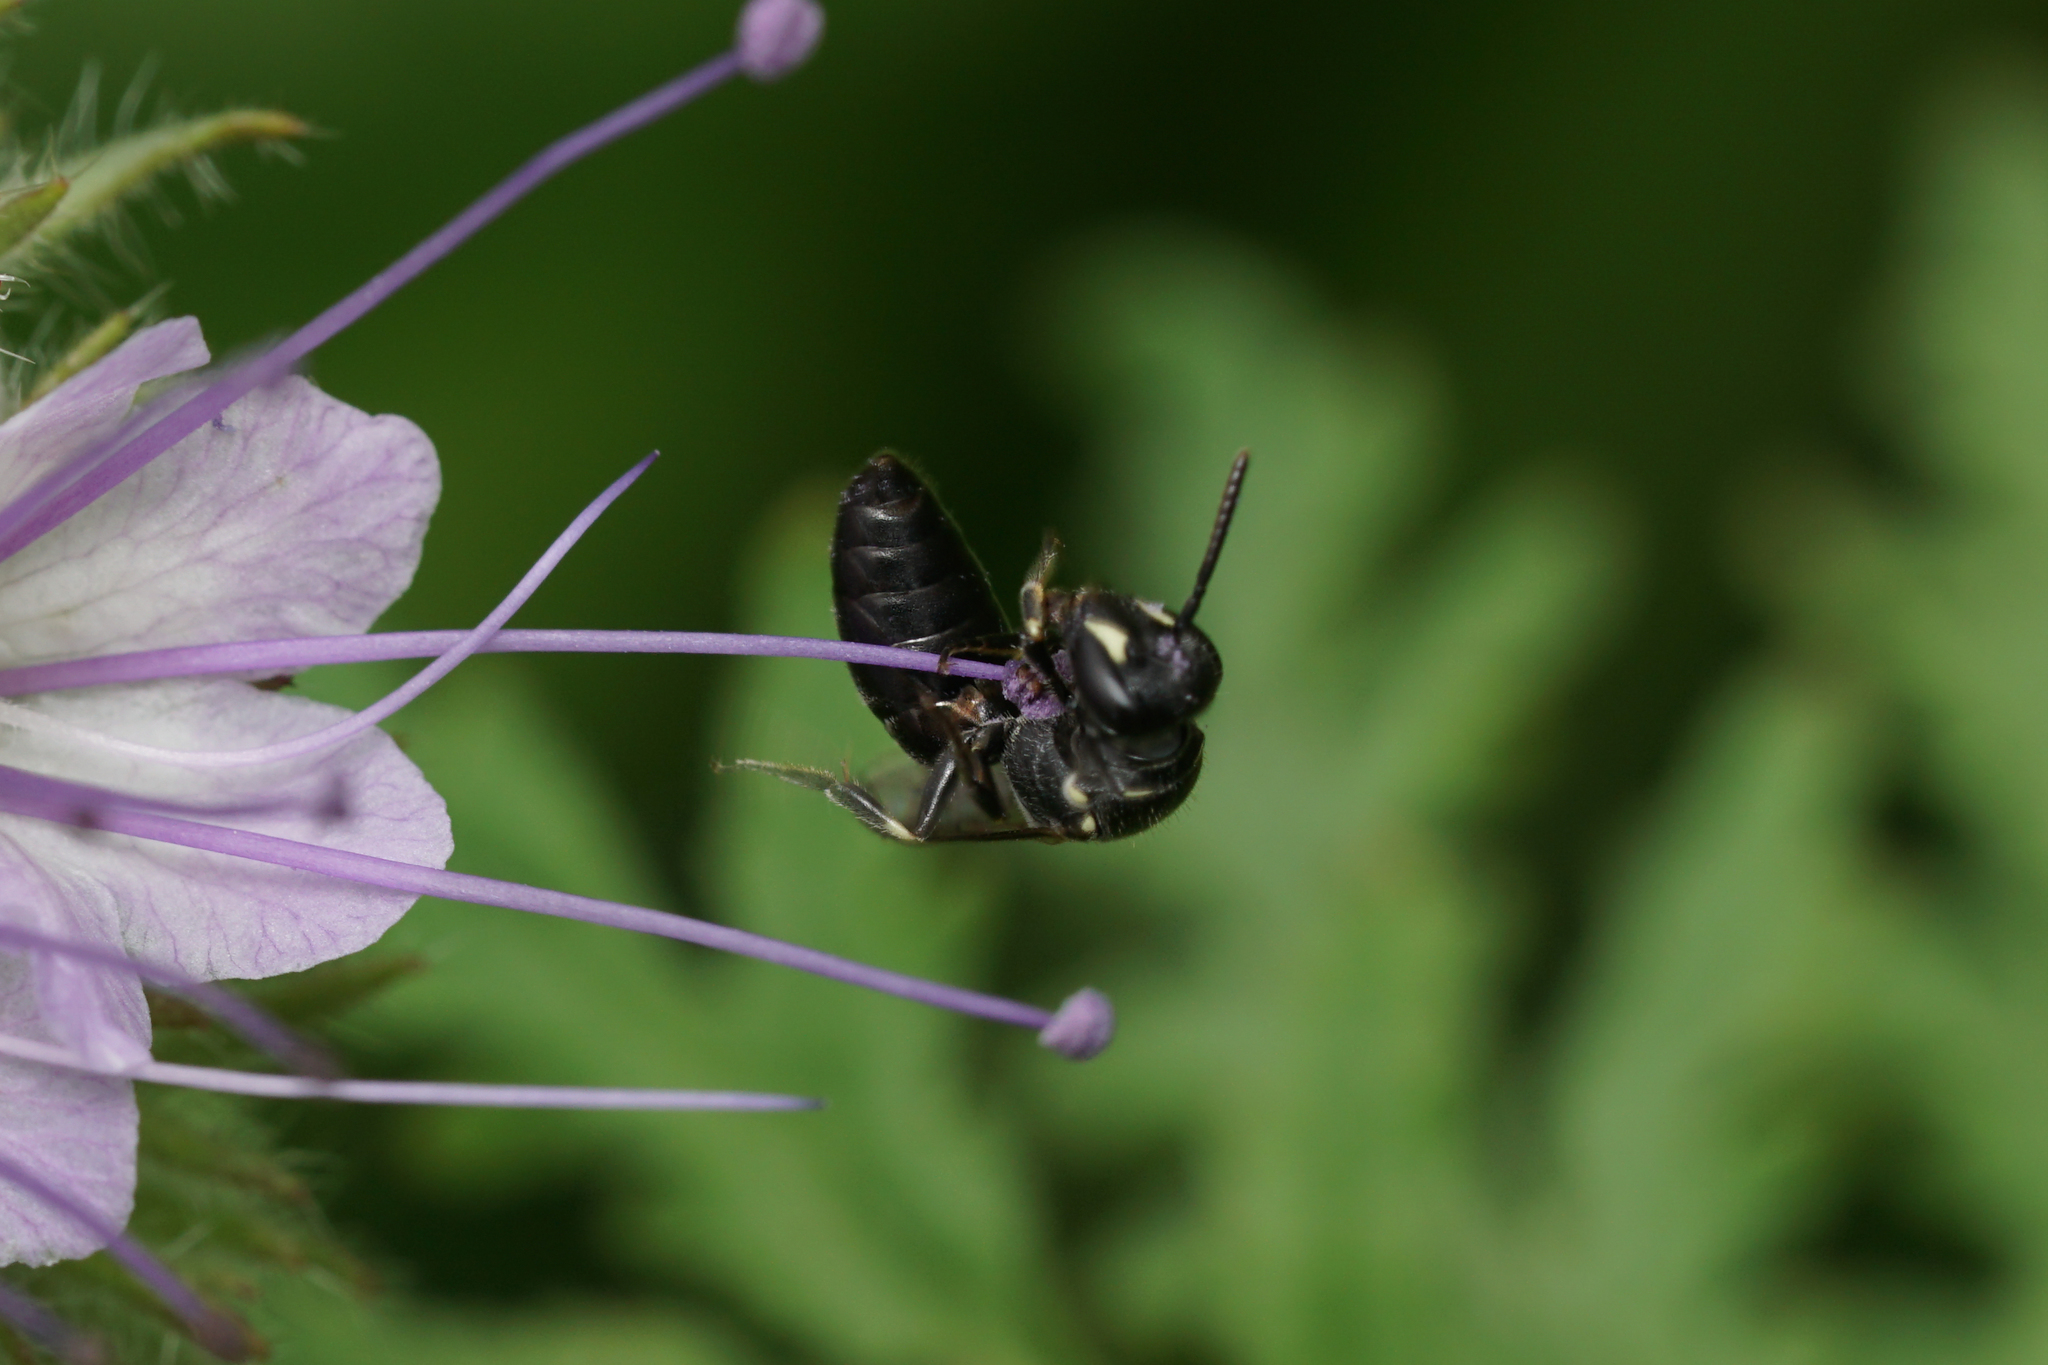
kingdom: Animalia
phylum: Arthropoda
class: Insecta
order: Hymenoptera
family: Colletidae
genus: Hylaeus
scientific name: Hylaeus
